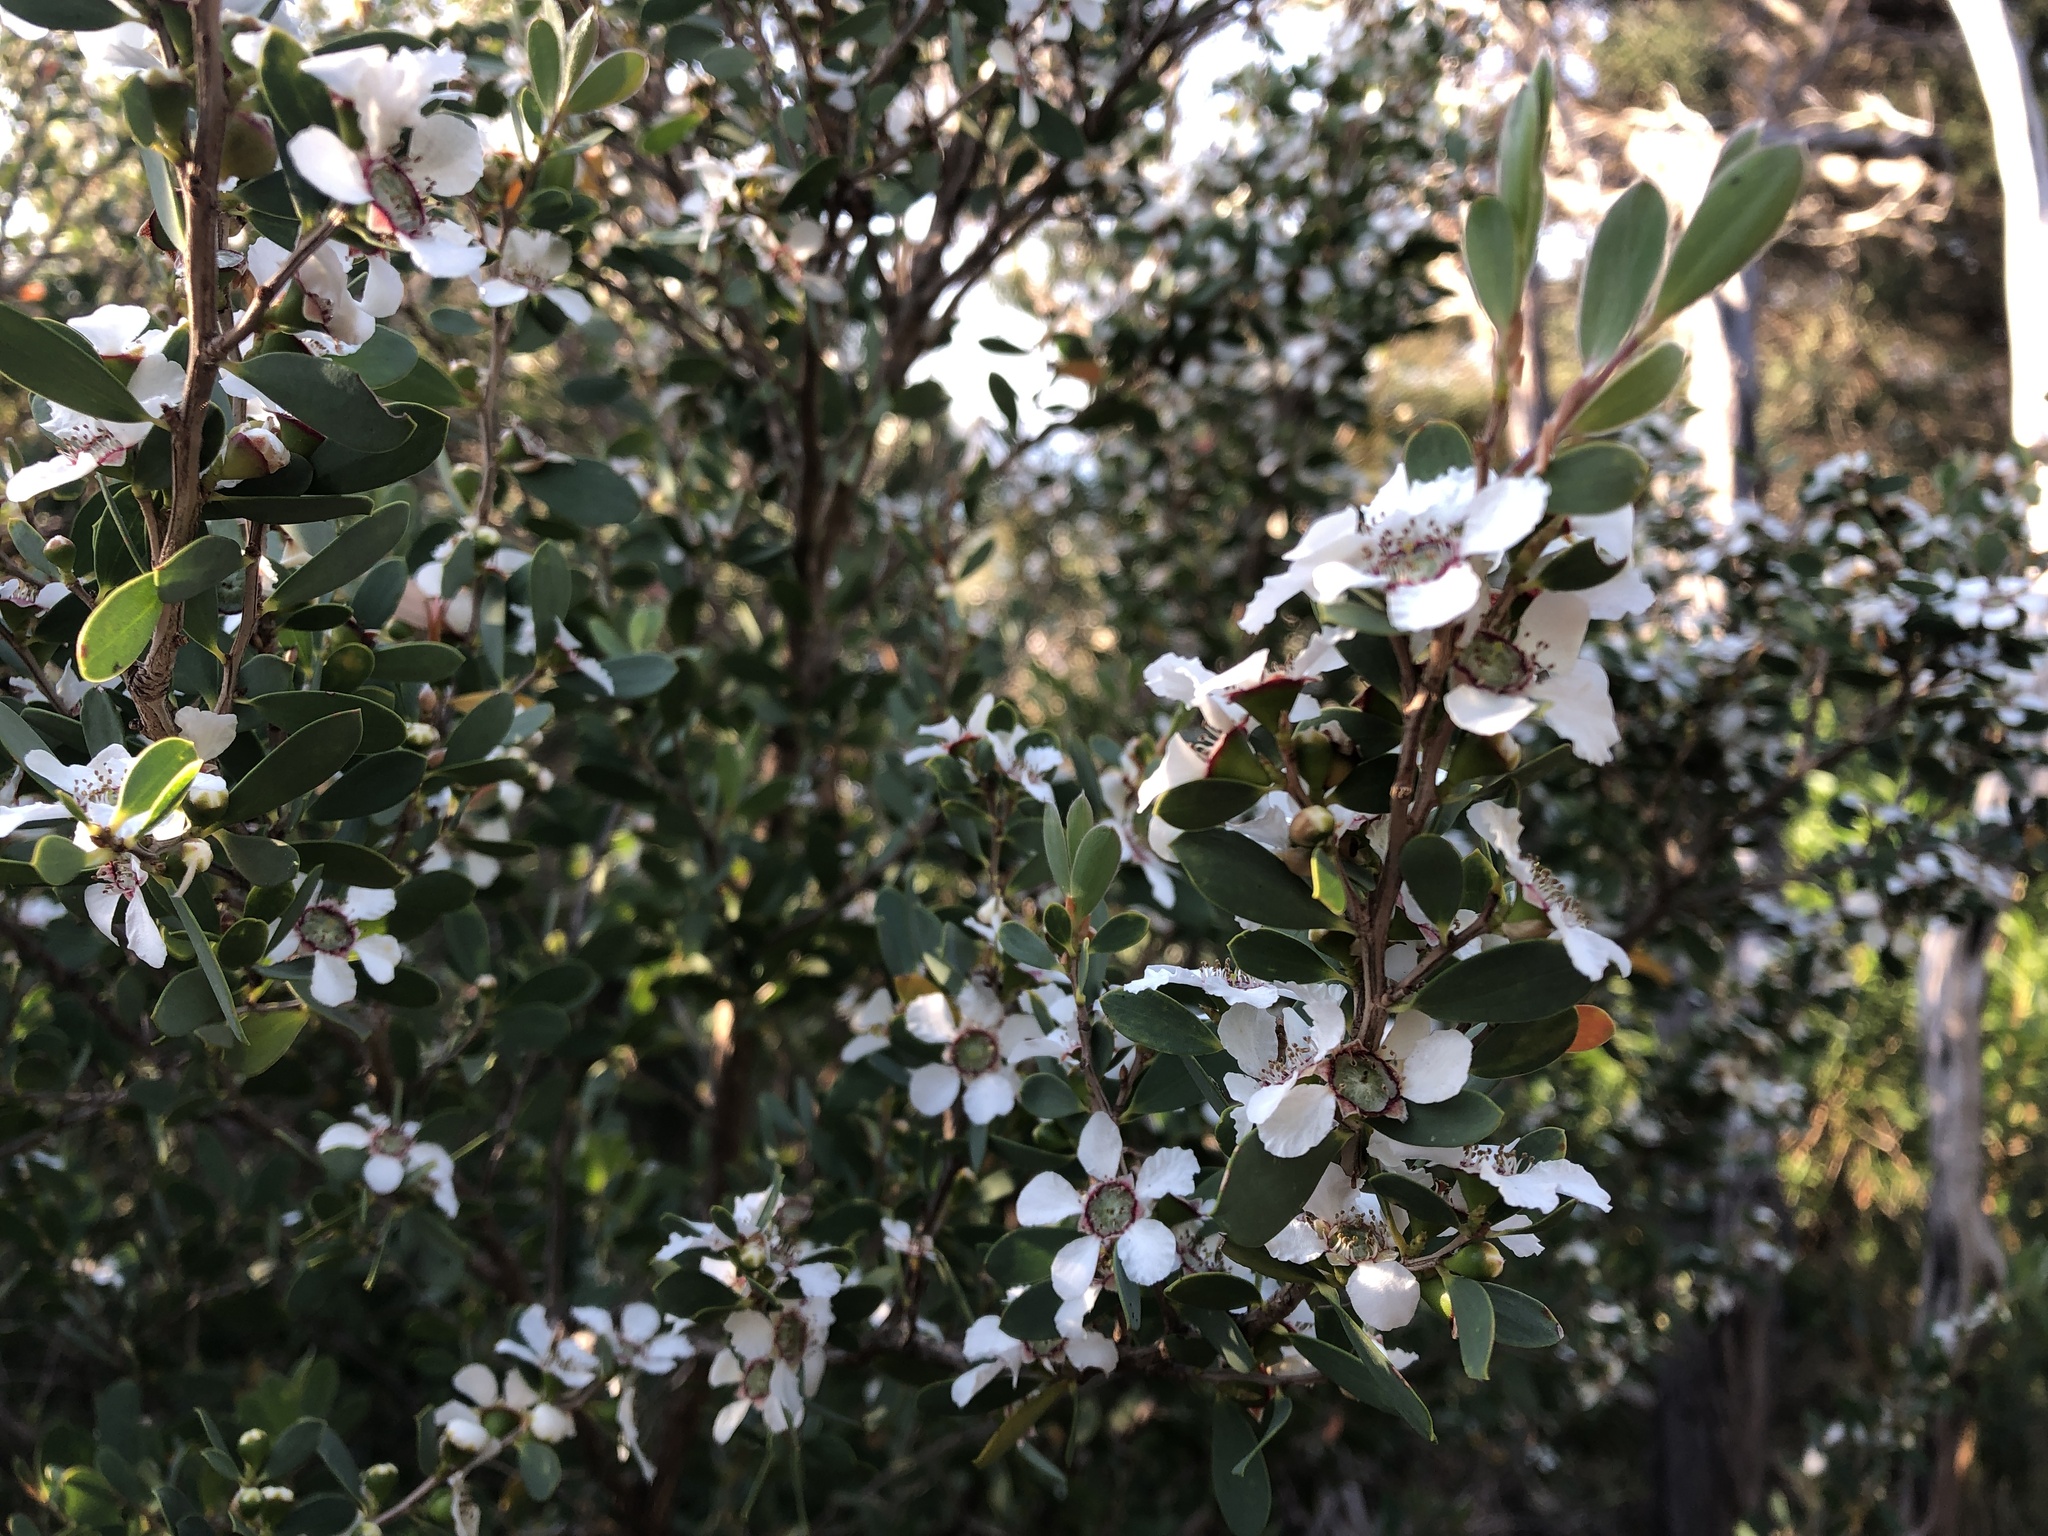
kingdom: Plantae
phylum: Tracheophyta
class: Magnoliopsida
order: Myrtales
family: Myrtaceae
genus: Leptospermum
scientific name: Leptospermum laevigatum
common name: Australian teatree
